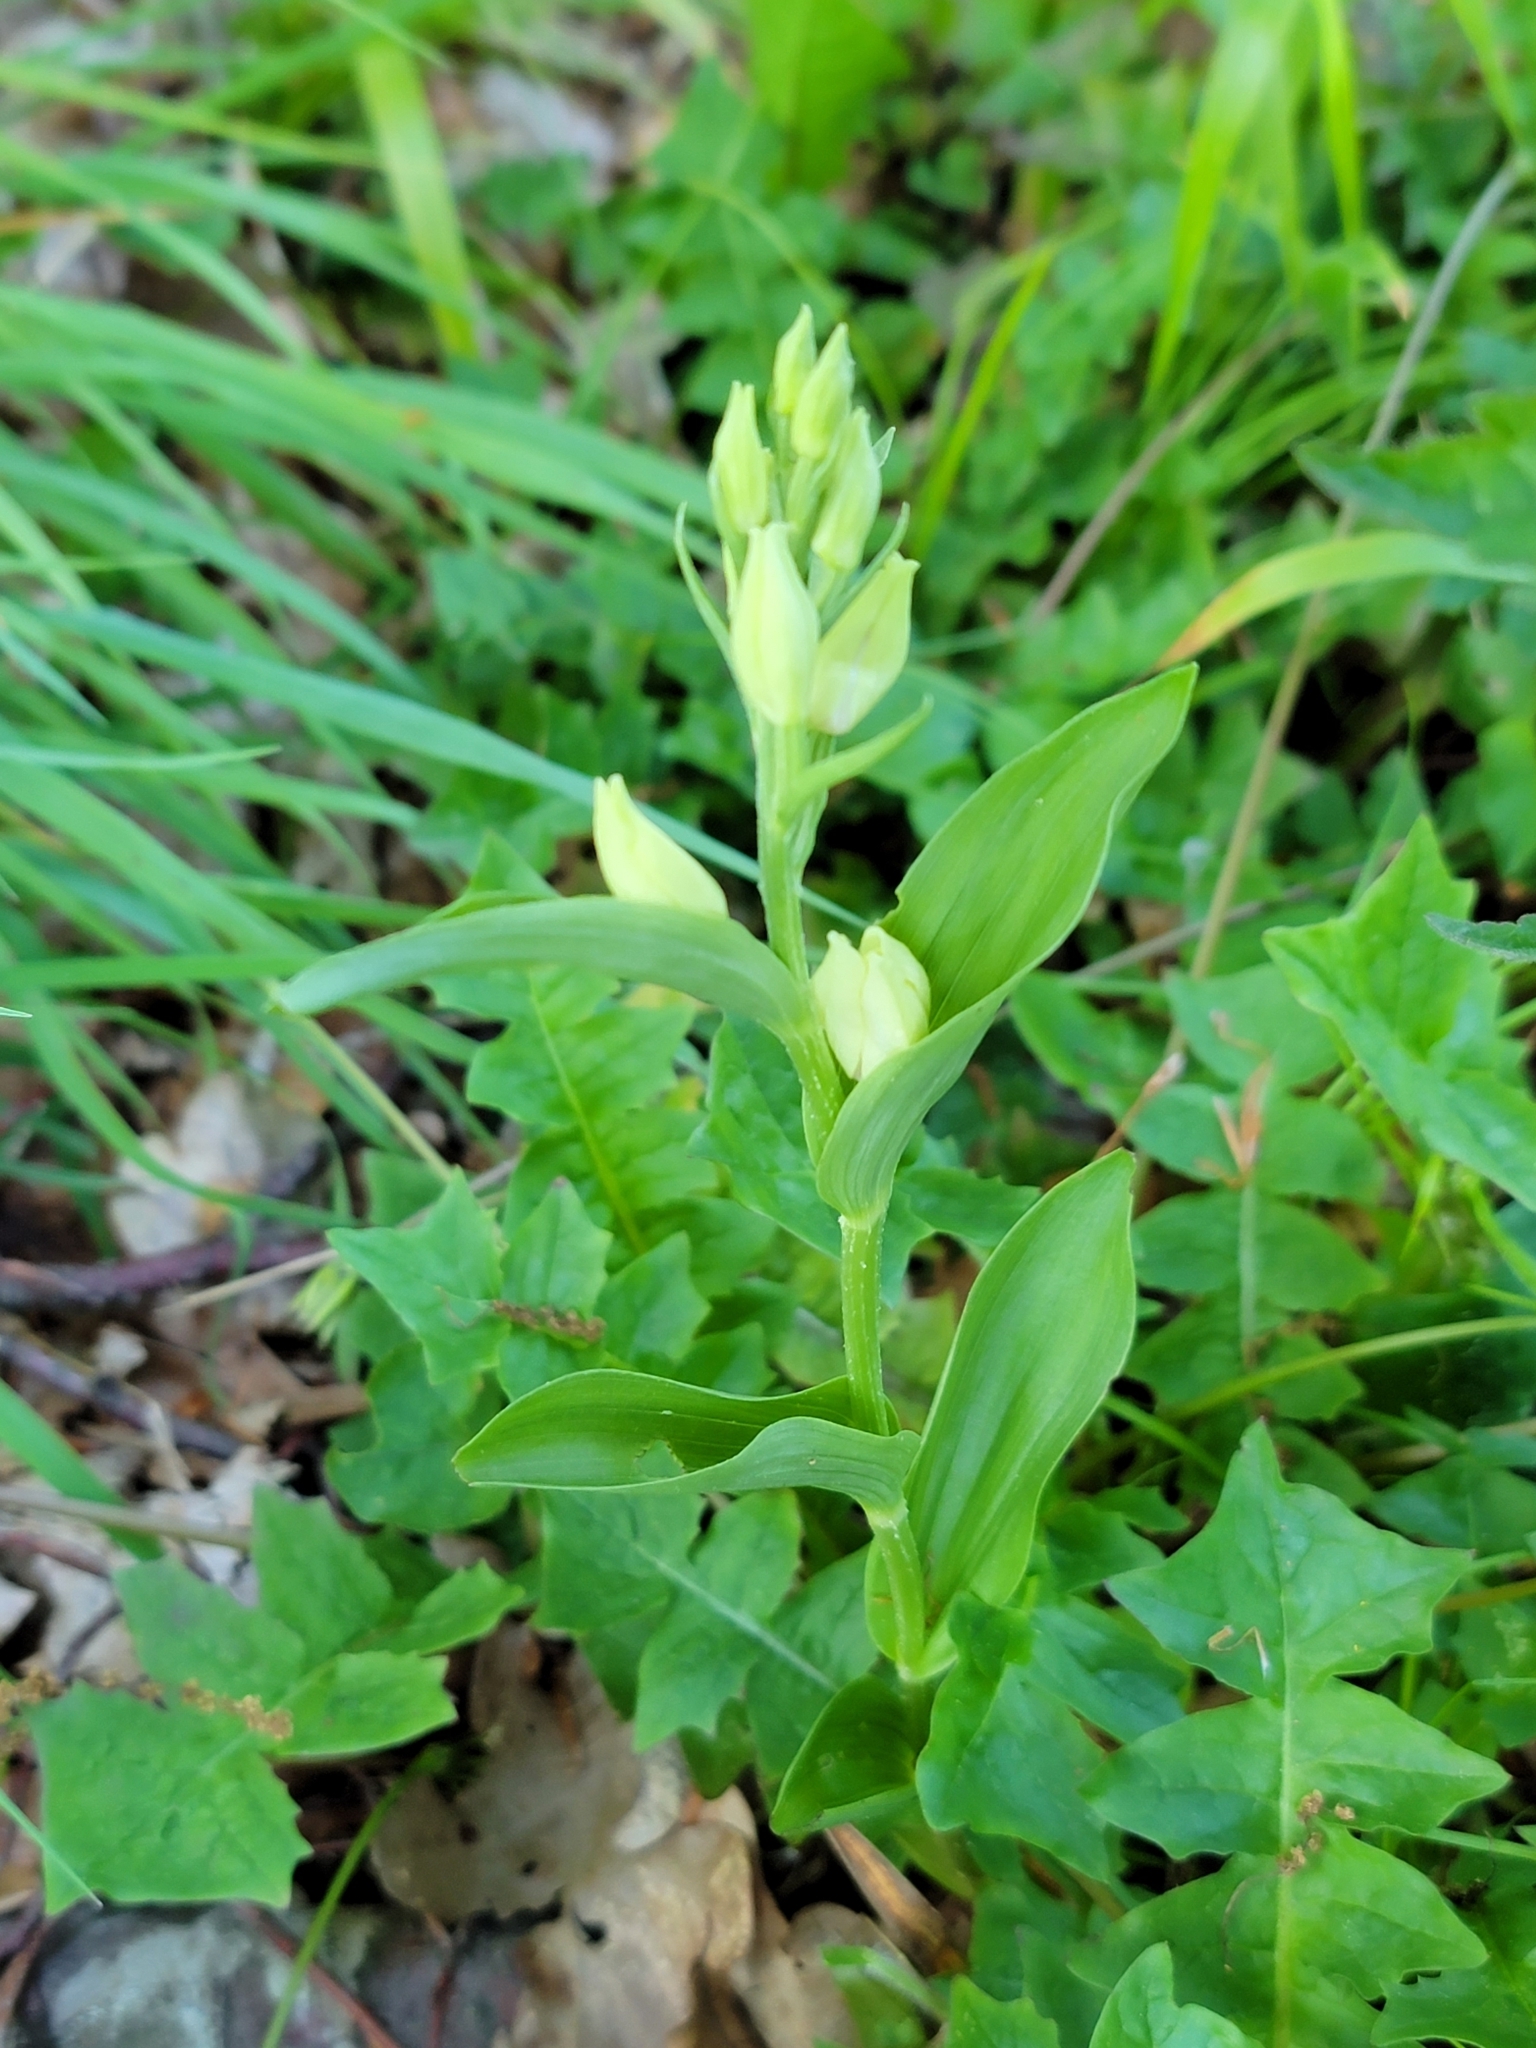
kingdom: Plantae
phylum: Tracheophyta
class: Liliopsida
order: Asparagales
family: Orchidaceae
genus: Cephalanthera
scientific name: Cephalanthera damasonium
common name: White helleborine
